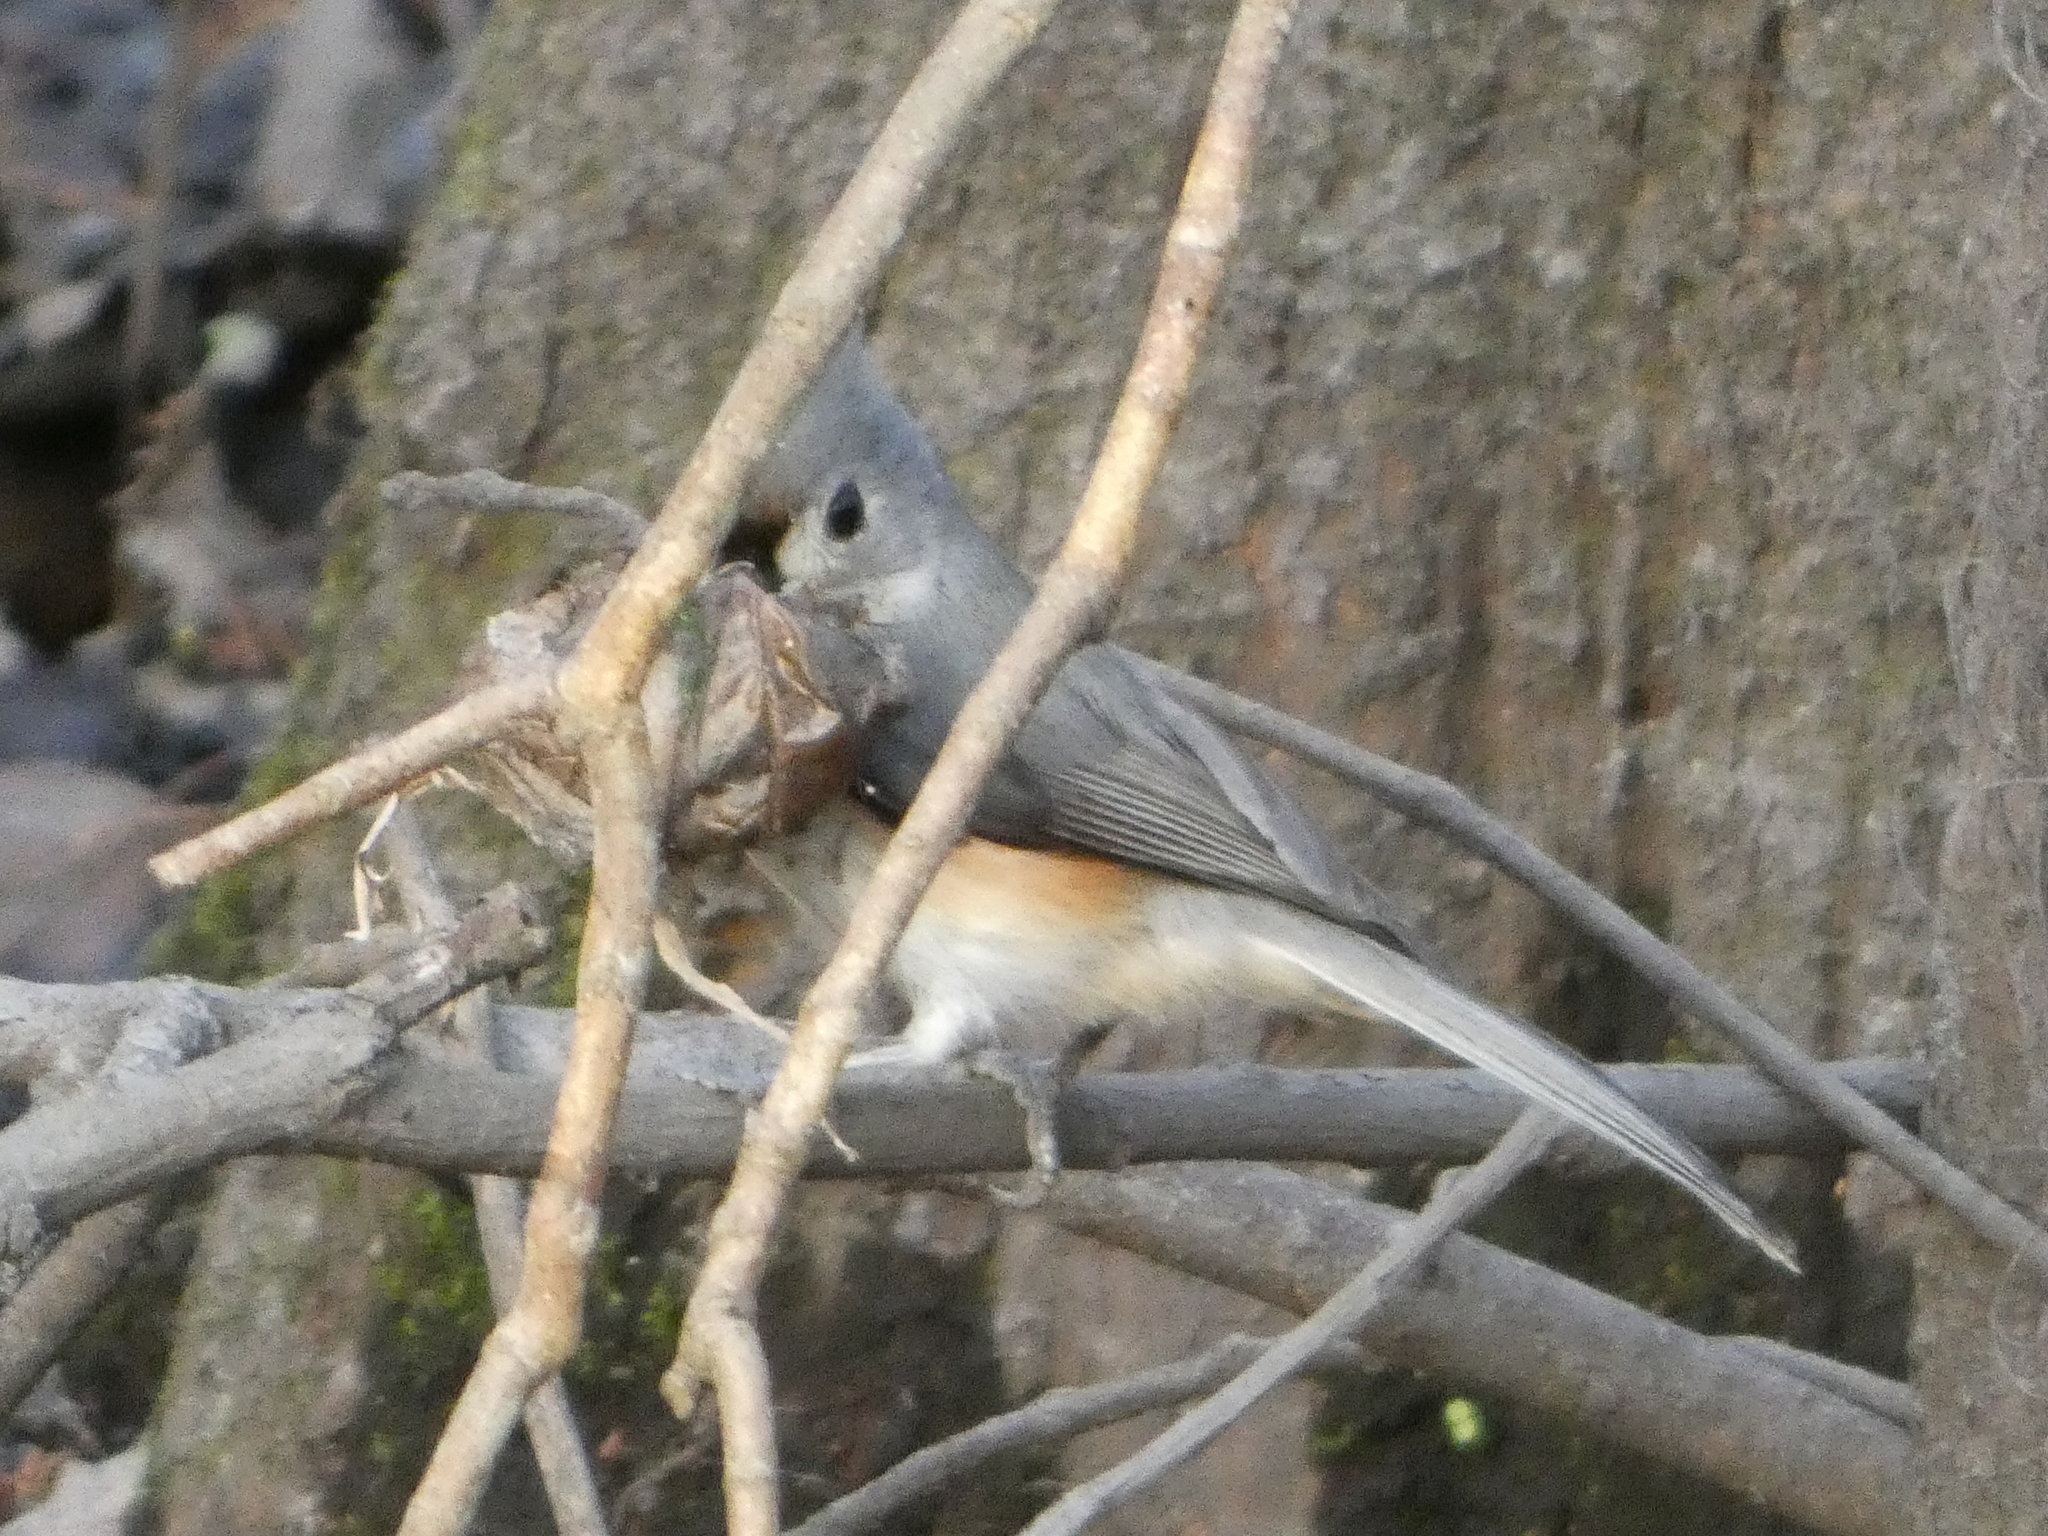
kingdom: Animalia
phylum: Chordata
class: Aves
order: Passeriformes
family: Paridae
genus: Baeolophus
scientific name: Baeolophus bicolor
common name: Tufted titmouse
